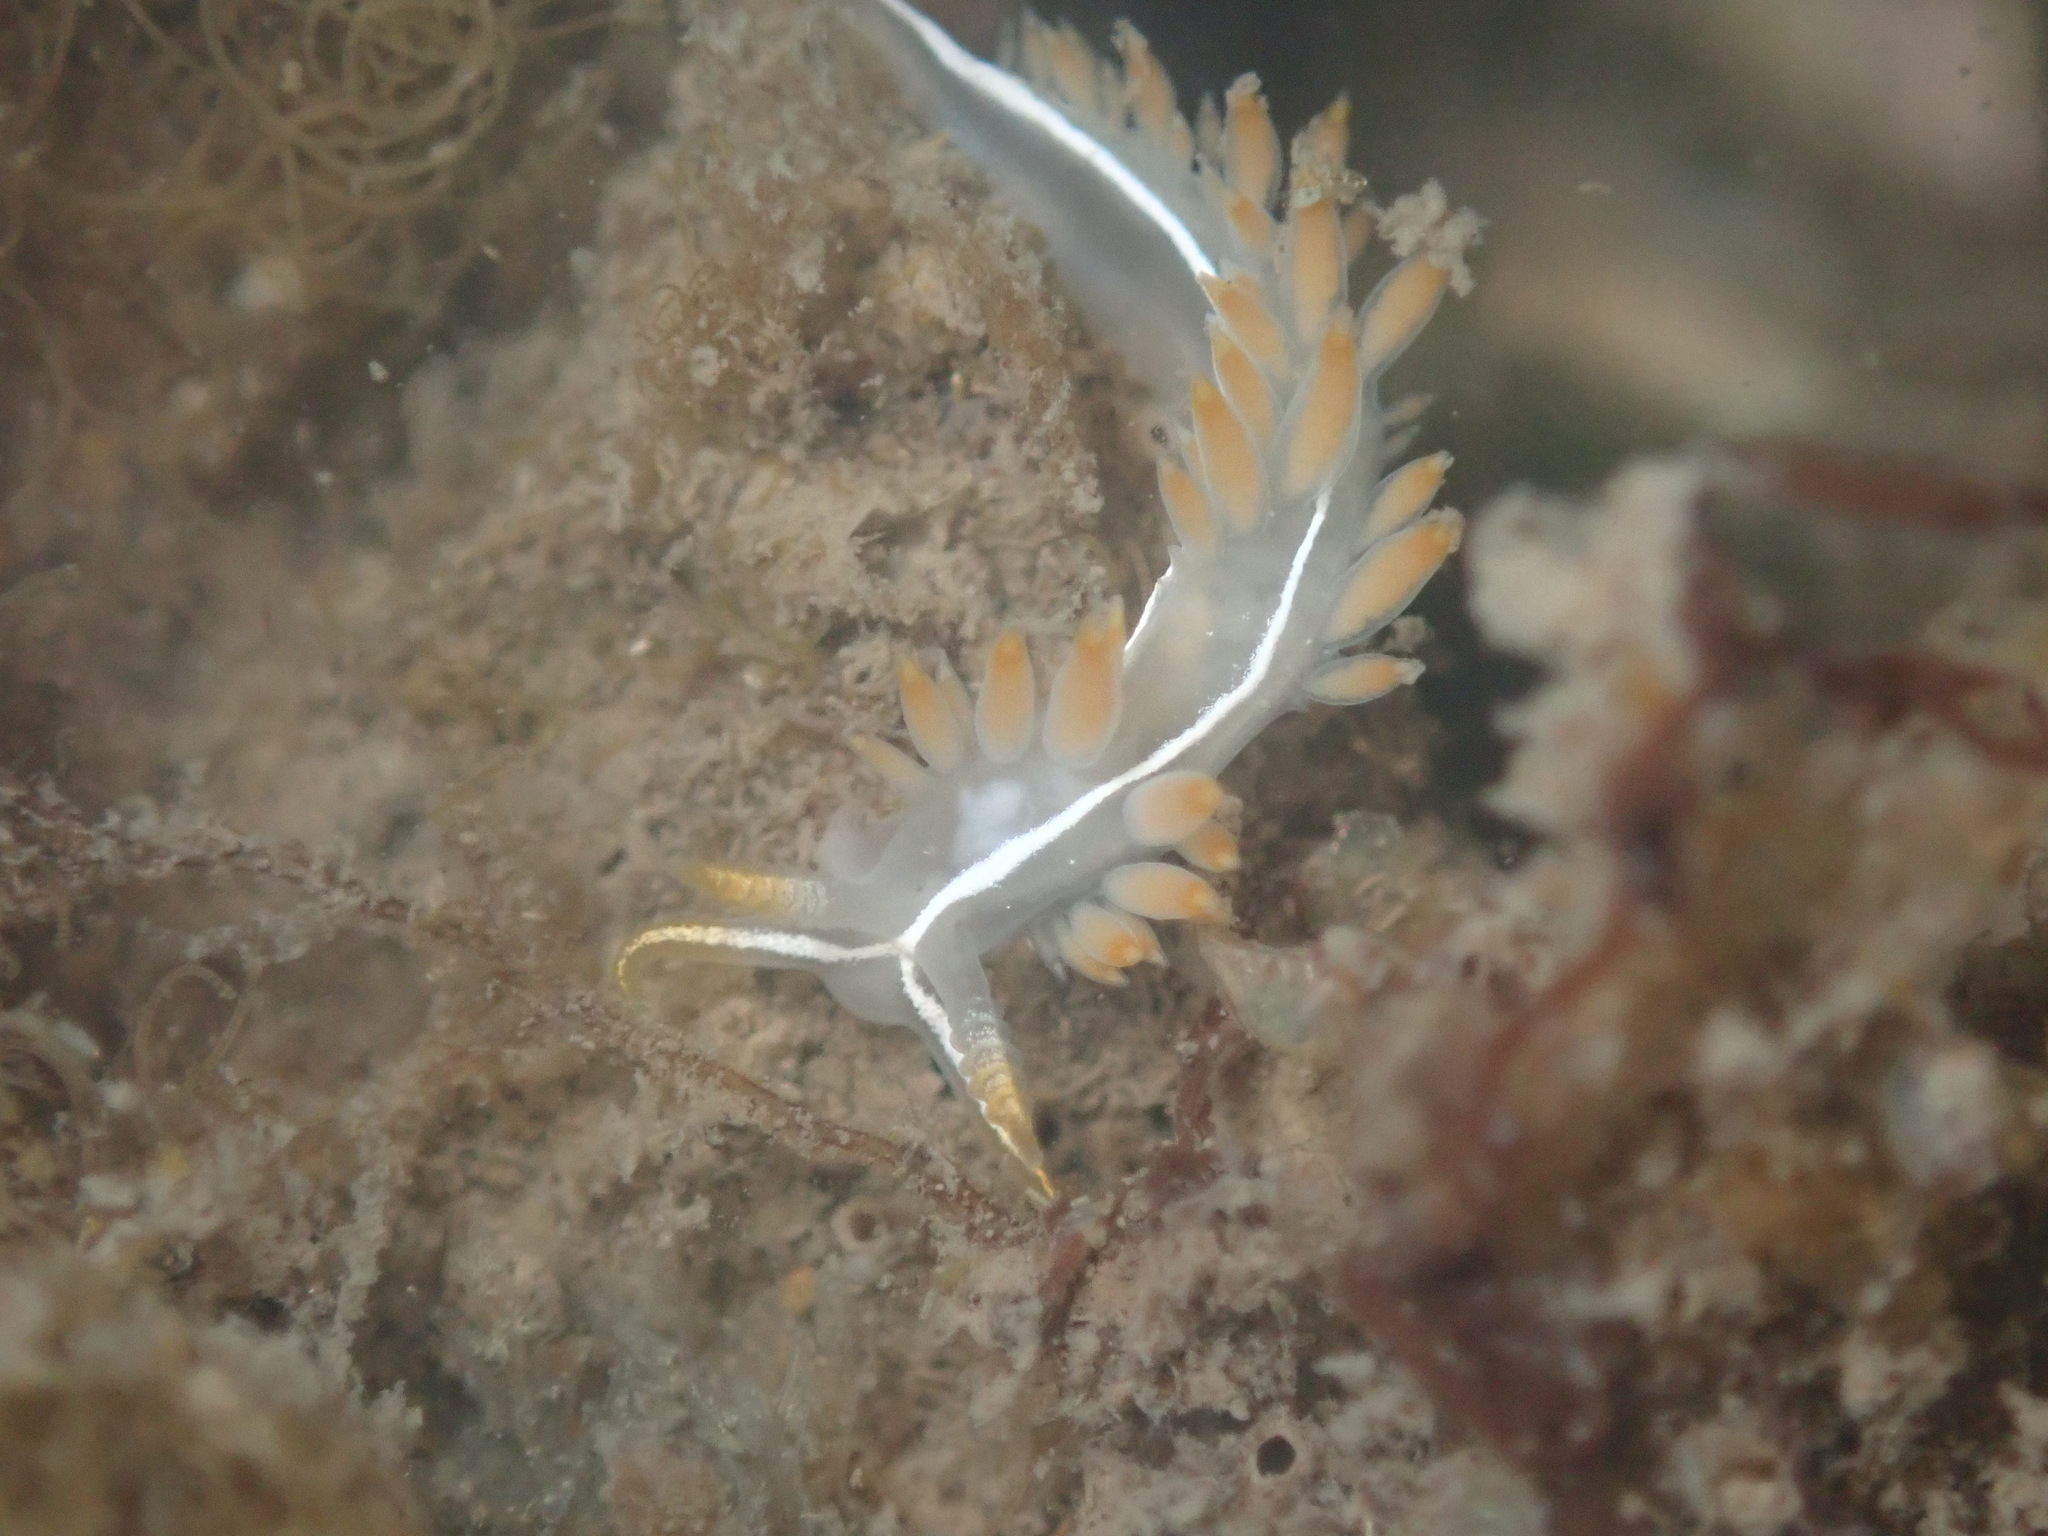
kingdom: Animalia
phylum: Mollusca
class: Gastropoda
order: Nudibranchia
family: Coryphellidae
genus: Coryphella
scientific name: Coryphella trilineata
